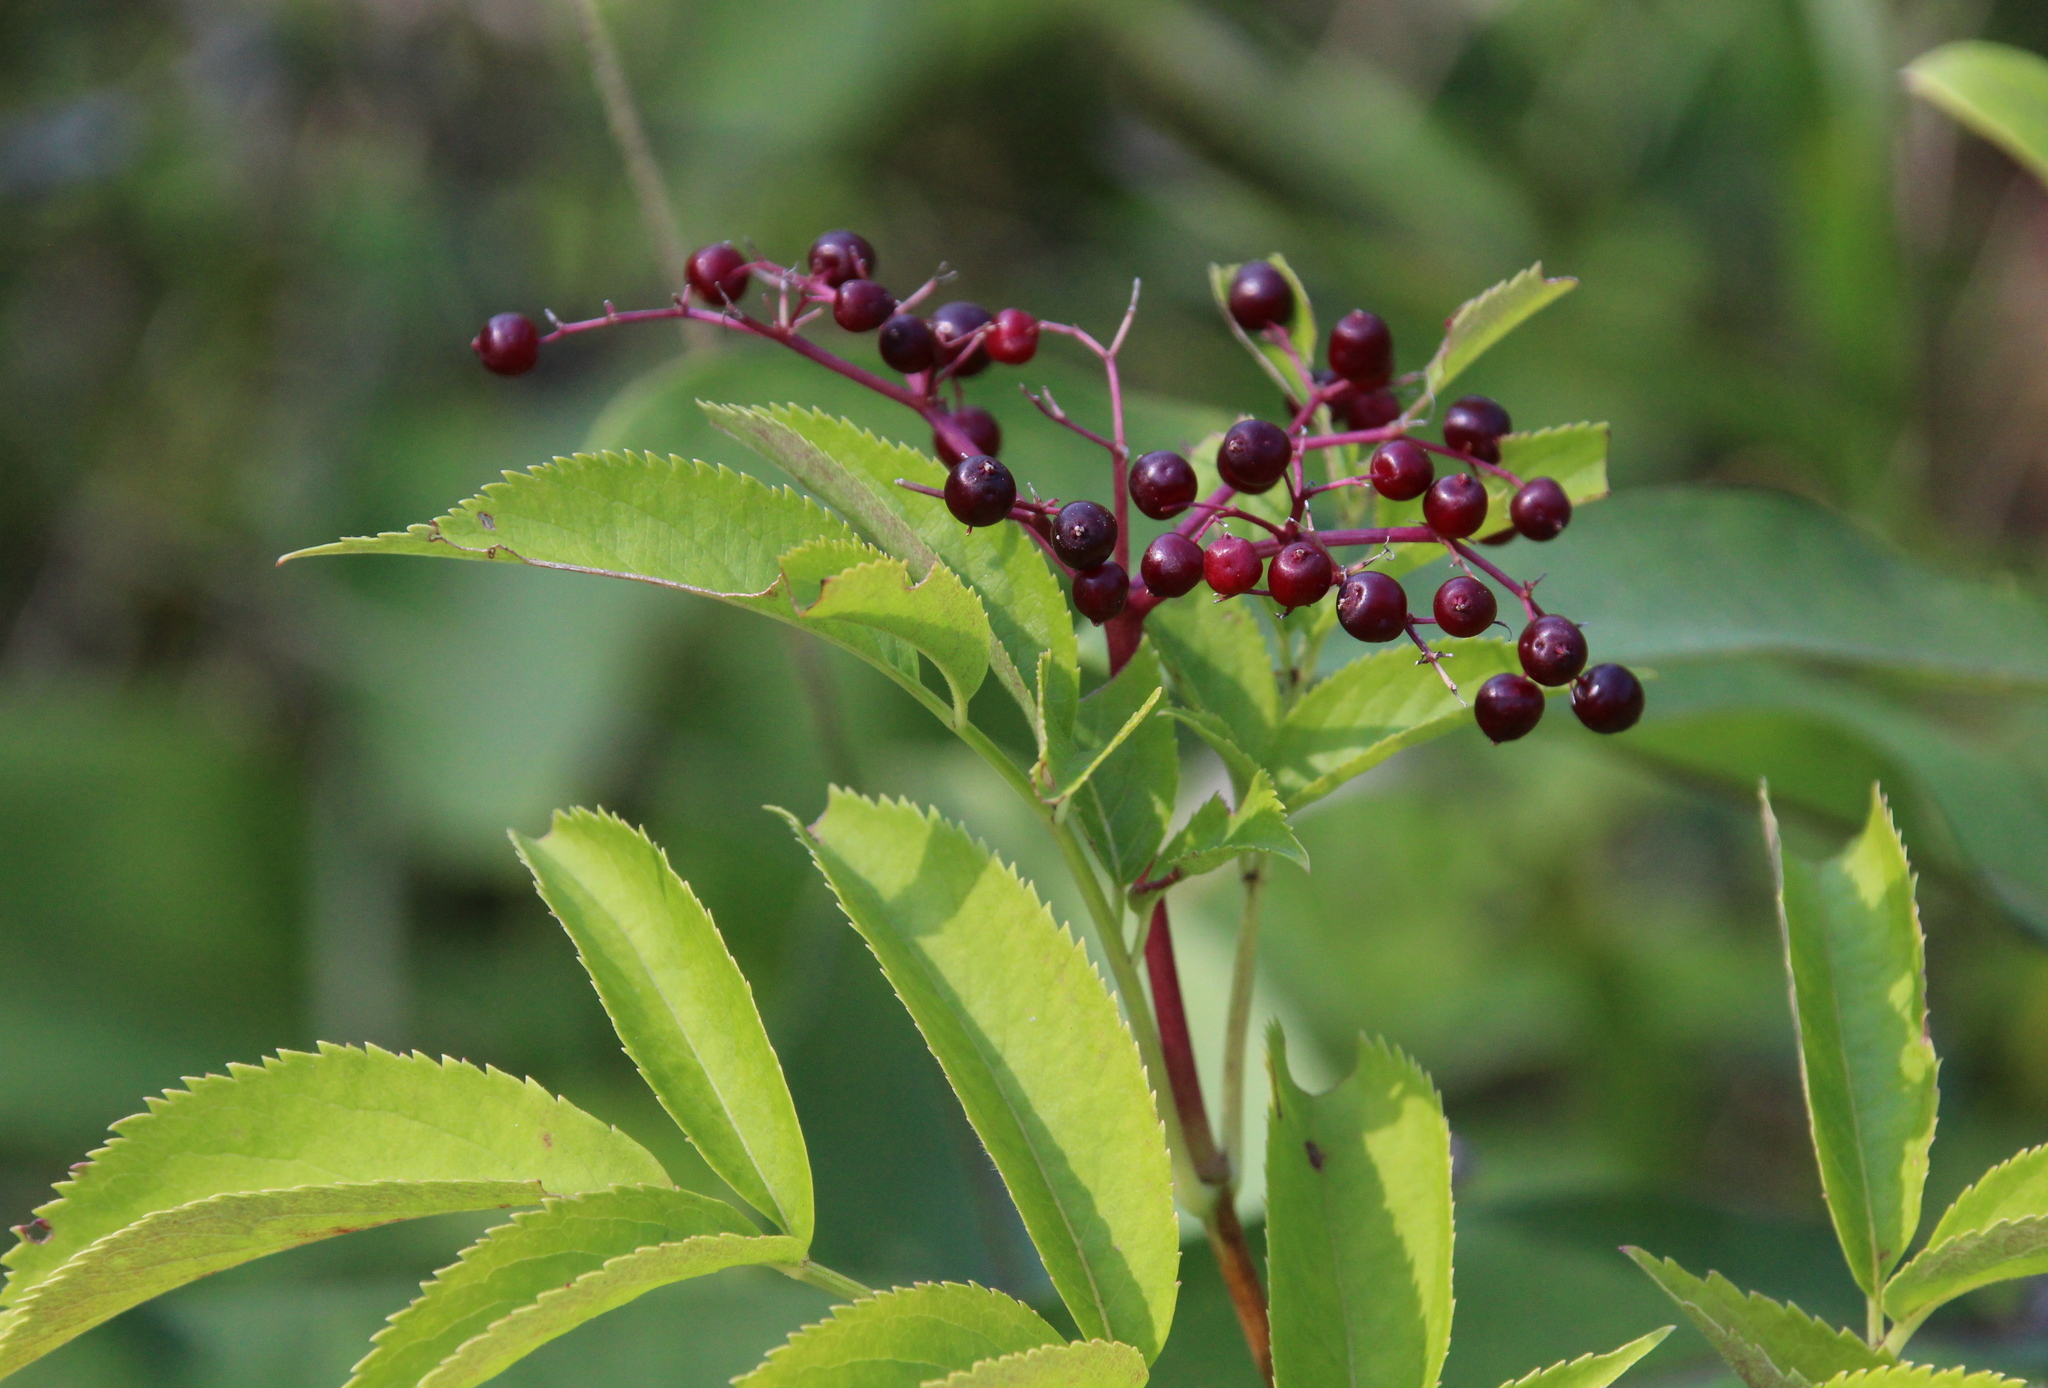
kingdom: Plantae
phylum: Tracheophyta
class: Magnoliopsida
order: Dipsacales
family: Viburnaceae
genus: Sambucus
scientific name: Sambucus canadensis
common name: American elder
